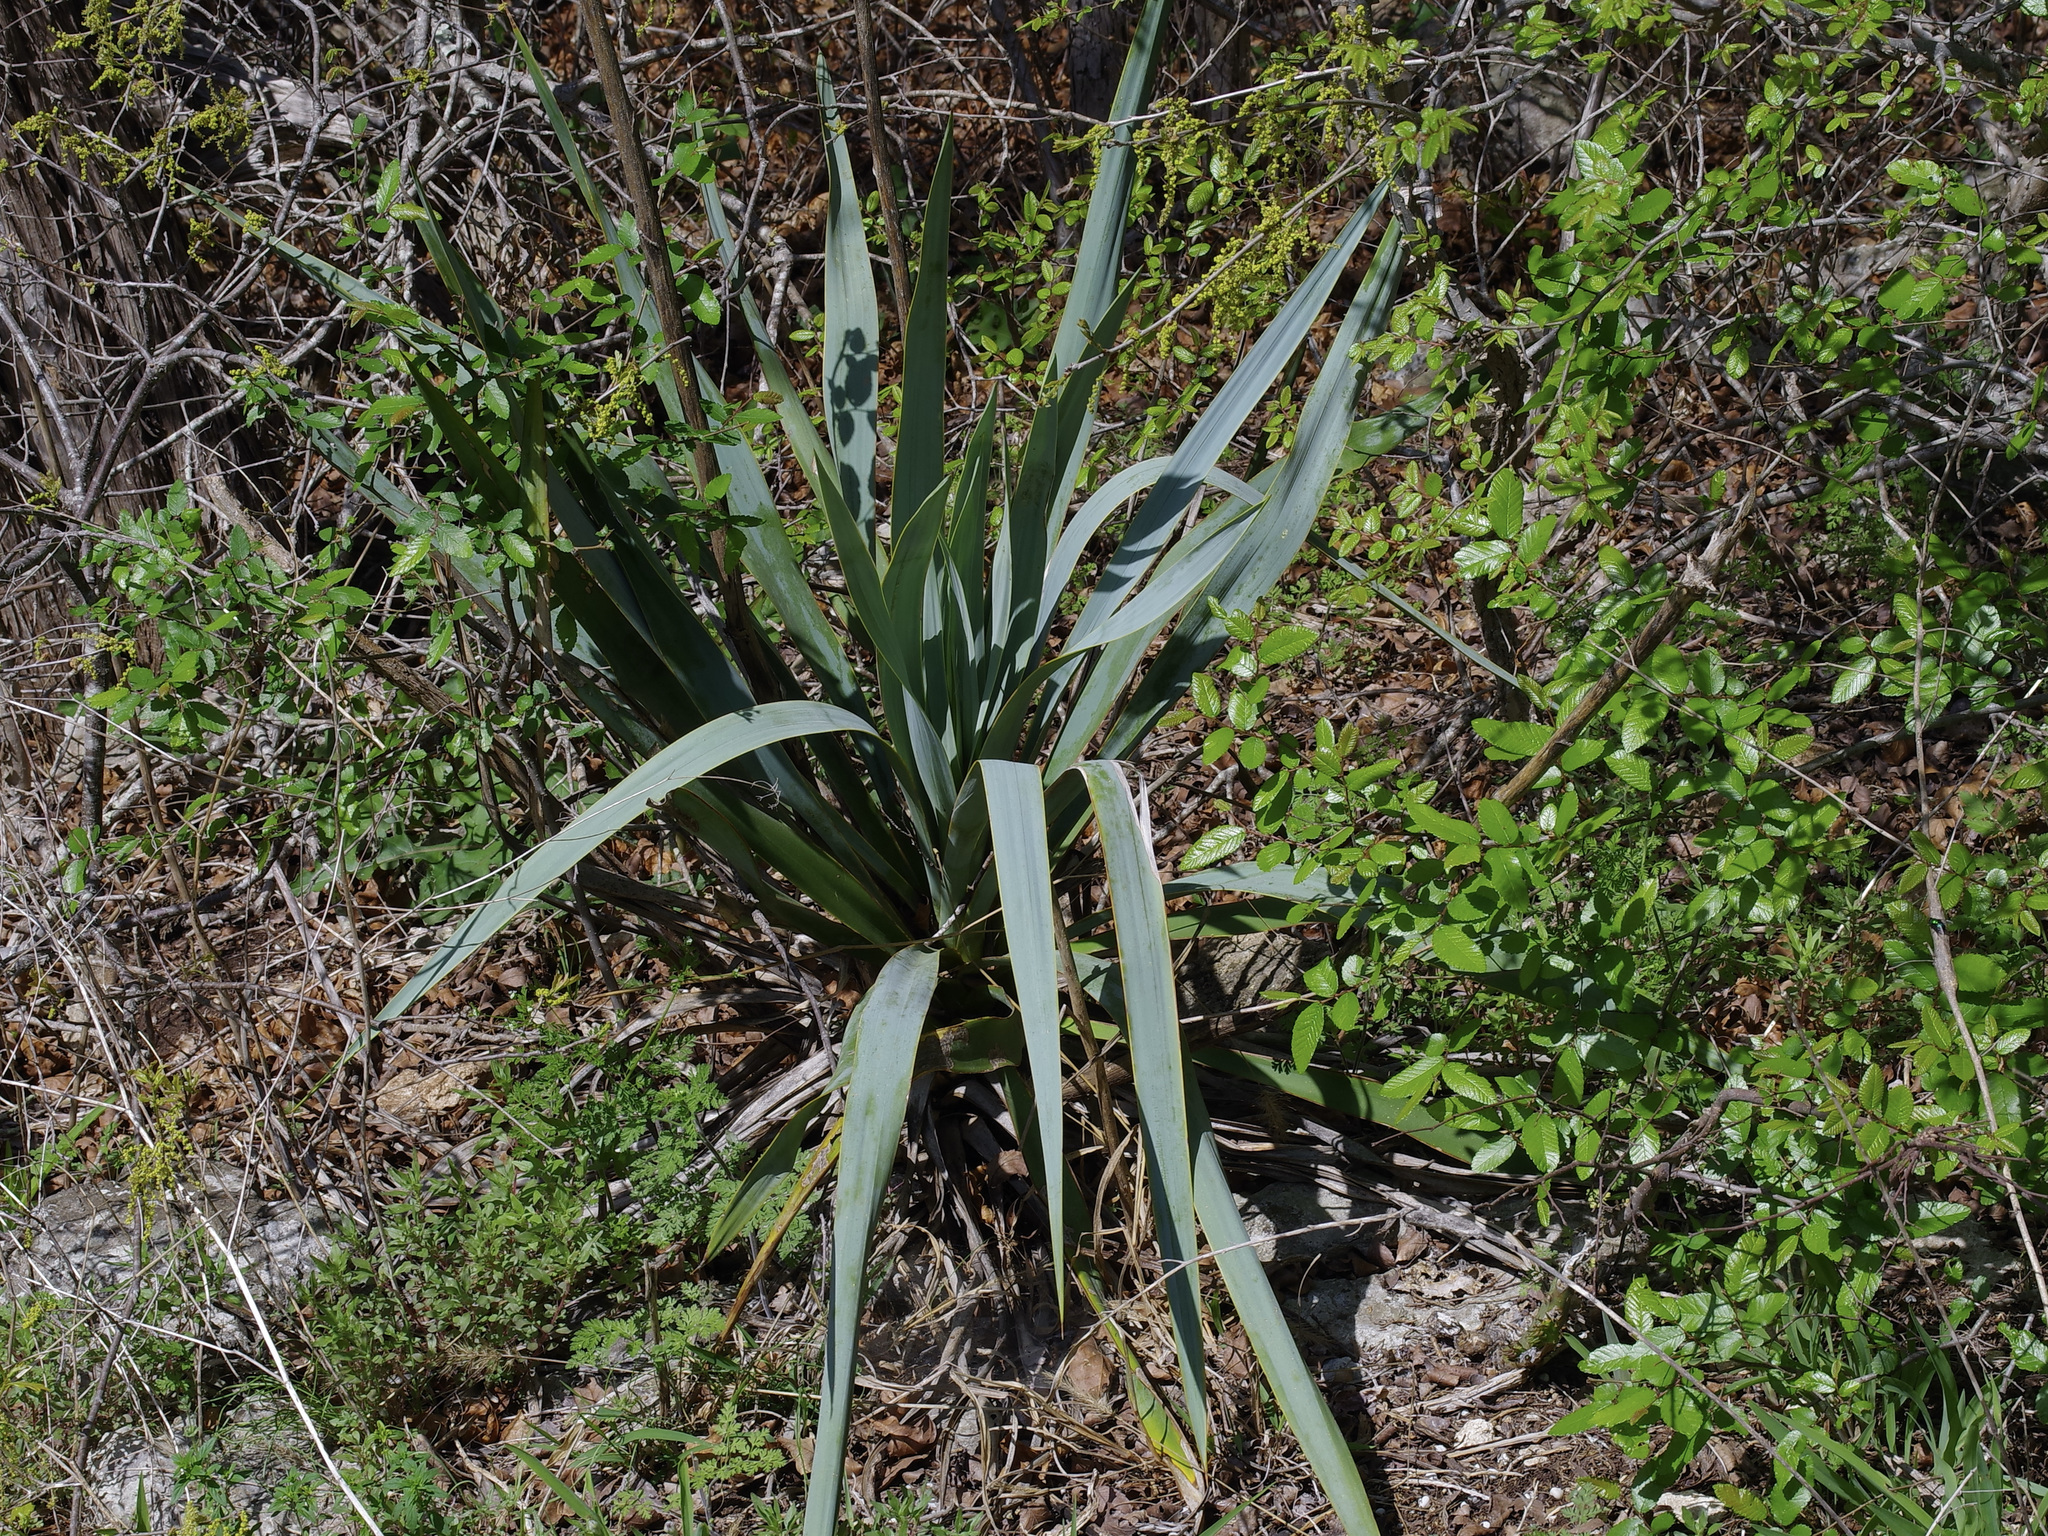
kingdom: Plantae
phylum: Tracheophyta
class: Liliopsida
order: Asparagales
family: Asparagaceae
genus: Yucca
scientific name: Yucca pallida
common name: Pale leaf yucca
